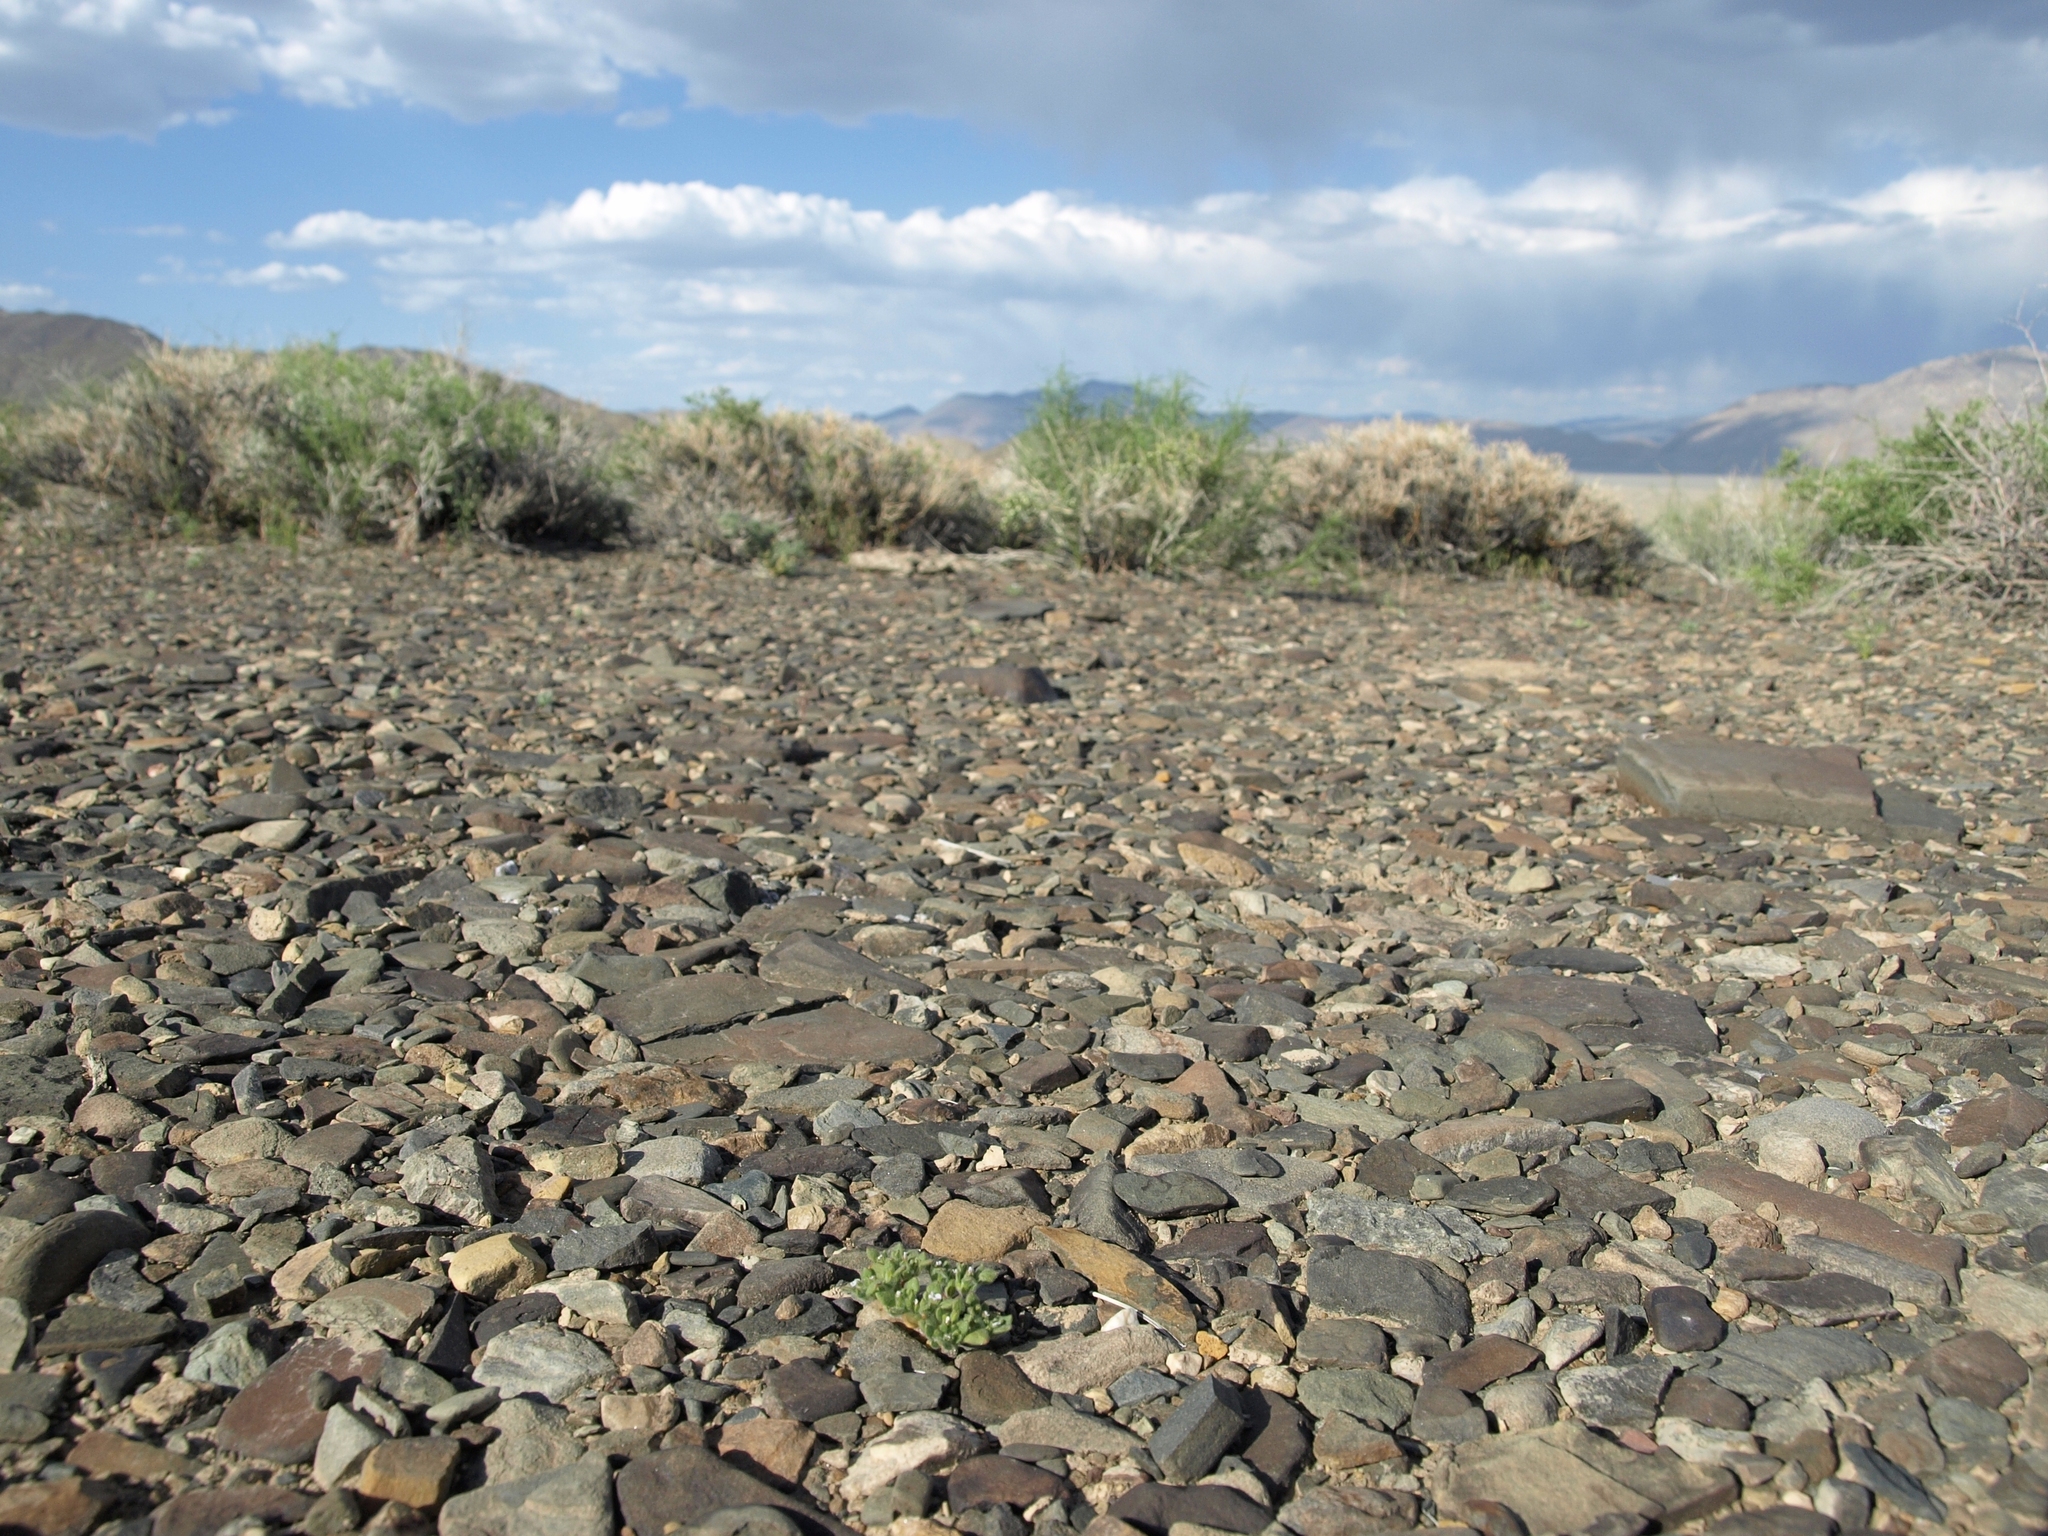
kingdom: Plantae
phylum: Tracheophyta
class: Magnoliopsida
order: Boraginales
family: Namaceae
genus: Nama
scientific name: Nama pusilla
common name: Eggleaf nama
